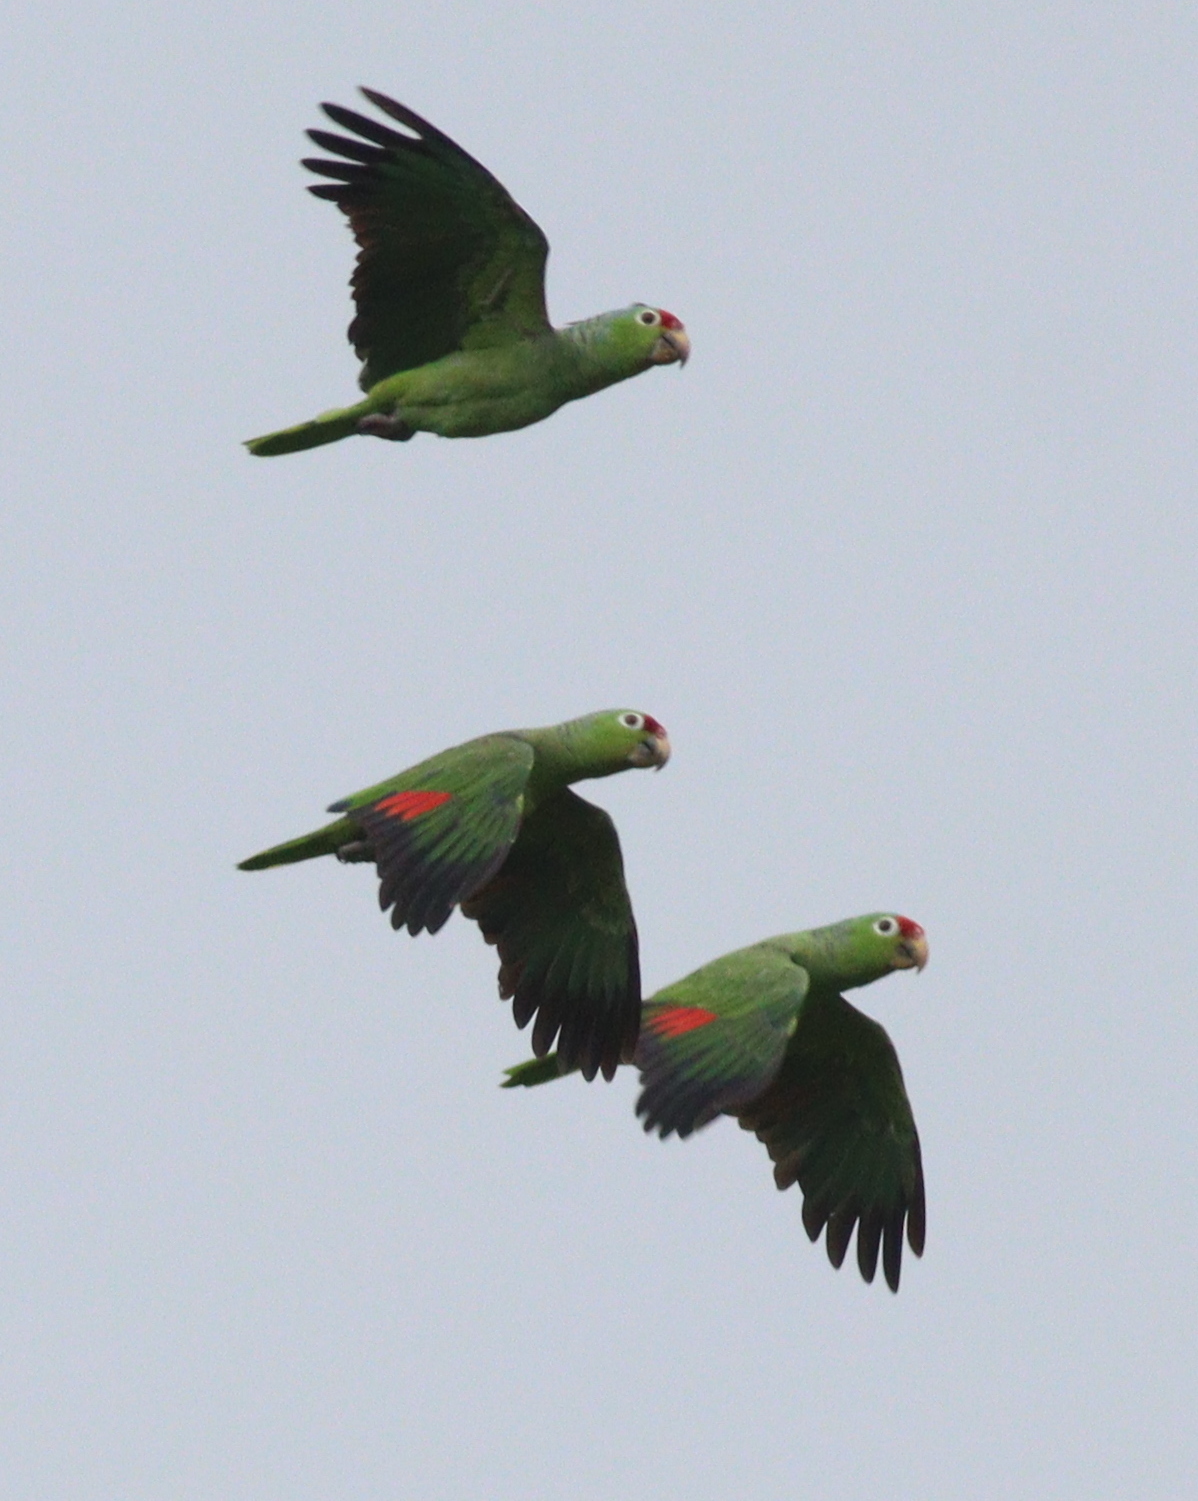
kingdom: Animalia
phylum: Chordata
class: Aves
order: Psittaciformes
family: Psittacidae
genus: Amazona
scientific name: Amazona autumnalis
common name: Red-lored amazon
